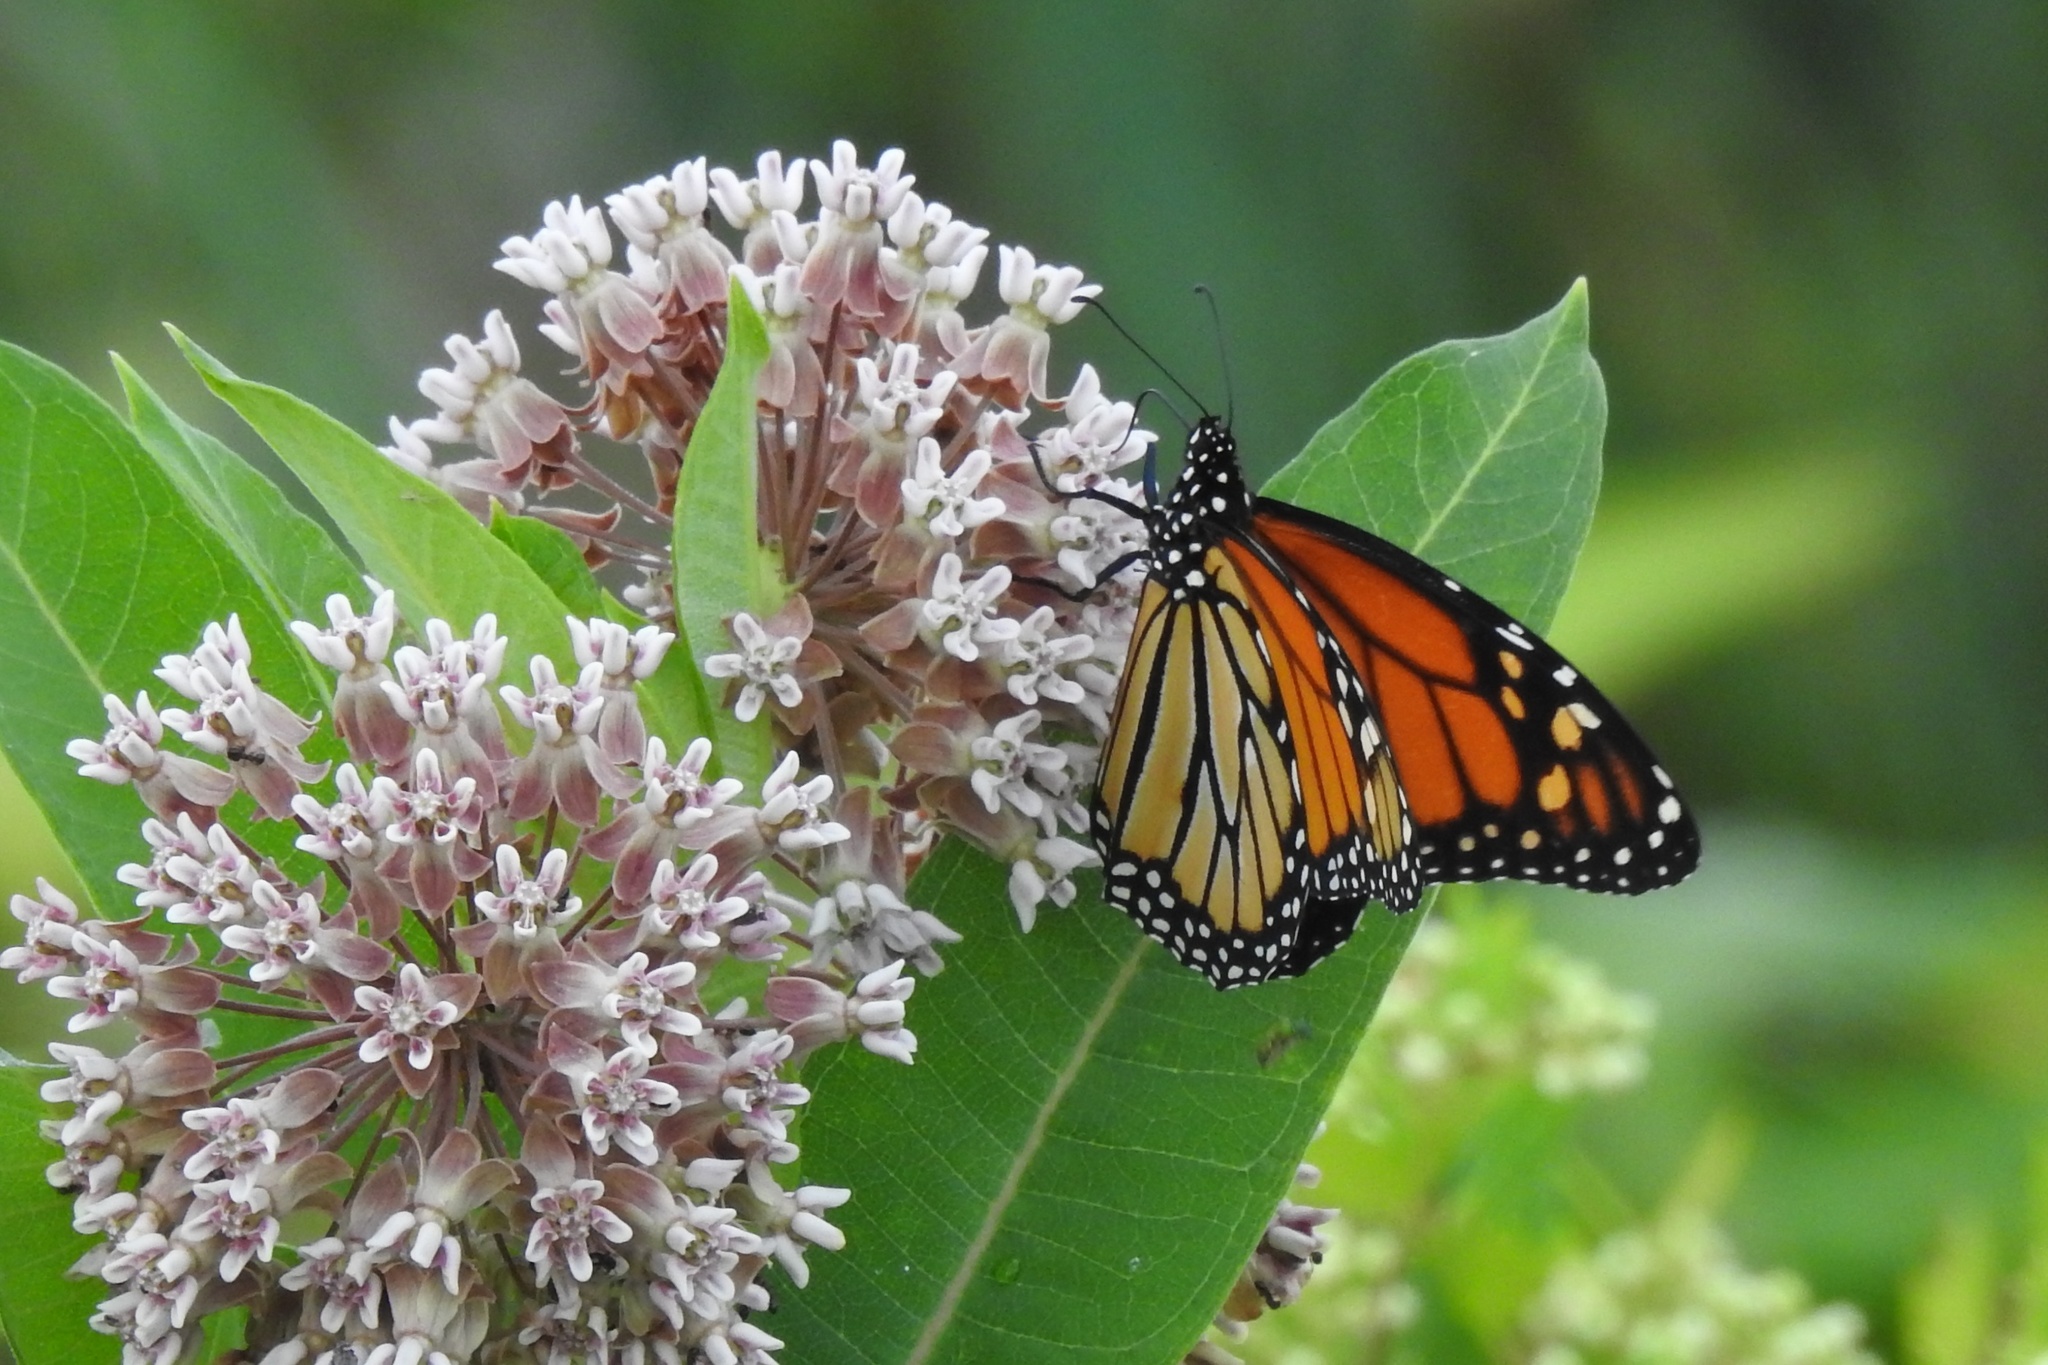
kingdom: Animalia
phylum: Arthropoda
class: Insecta
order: Lepidoptera
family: Nymphalidae
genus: Danaus
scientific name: Danaus plexippus
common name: Monarch
